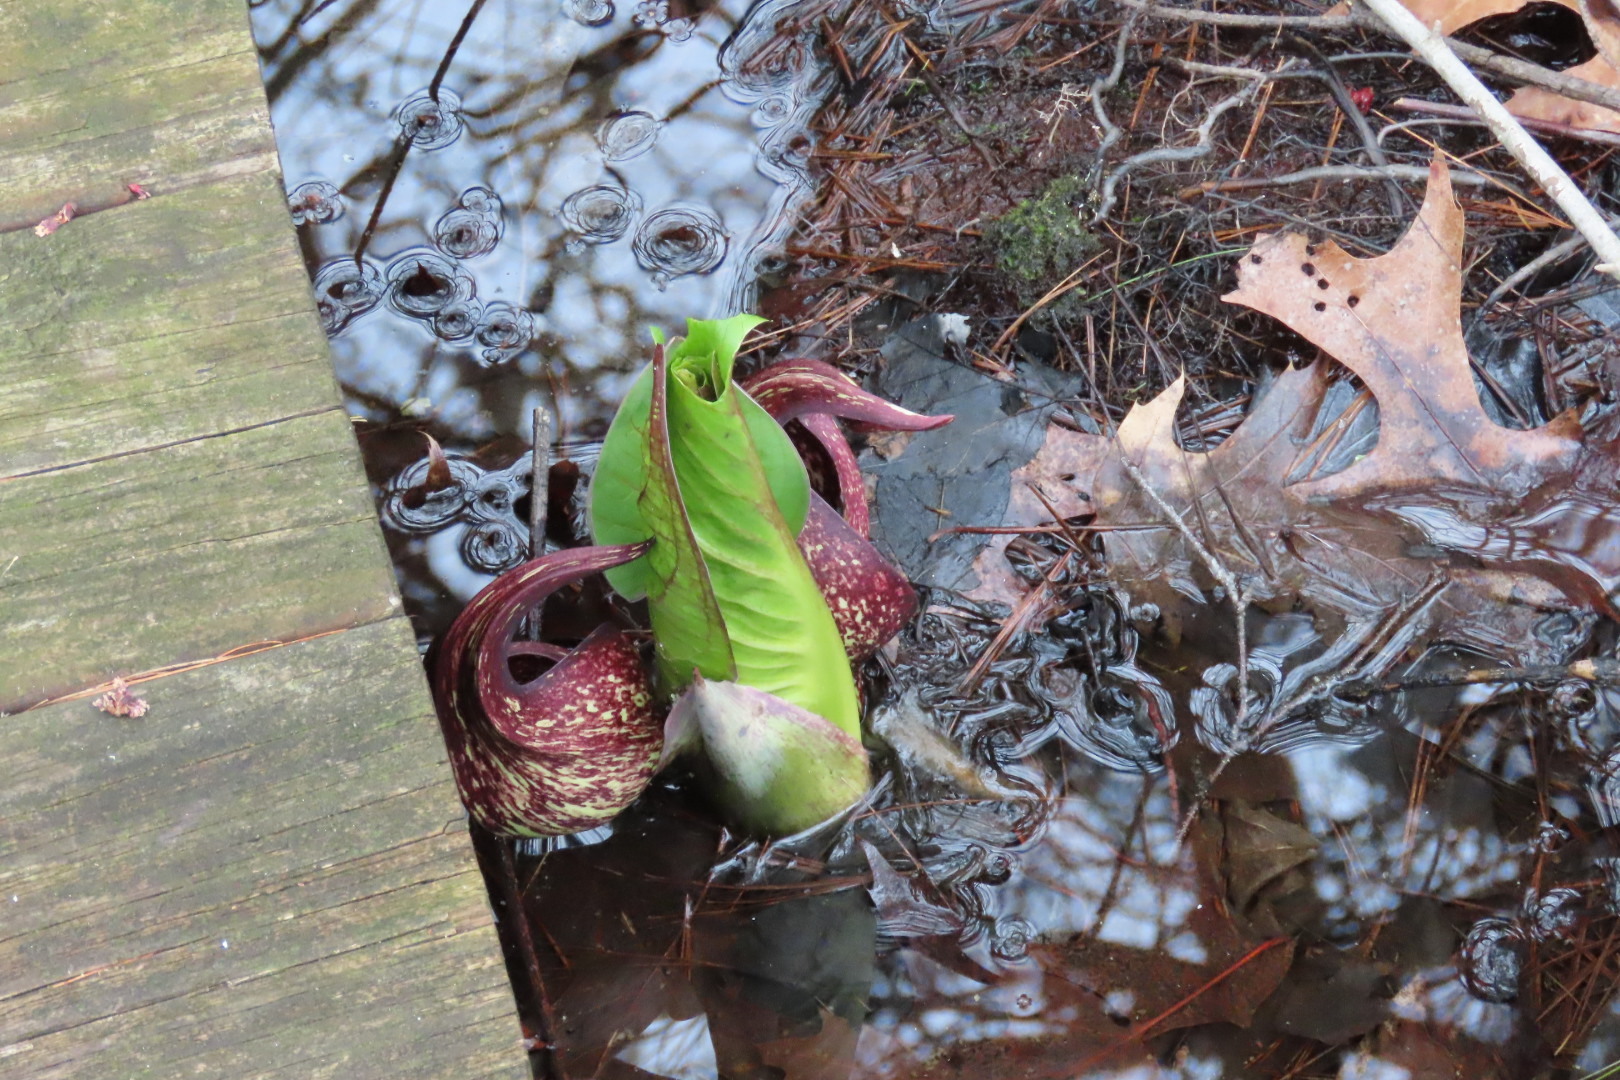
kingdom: Plantae
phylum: Tracheophyta
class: Liliopsida
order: Alismatales
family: Araceae
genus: Symplocarpus
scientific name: Symplocarpus foetidus
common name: Eastern skunk cabbage
